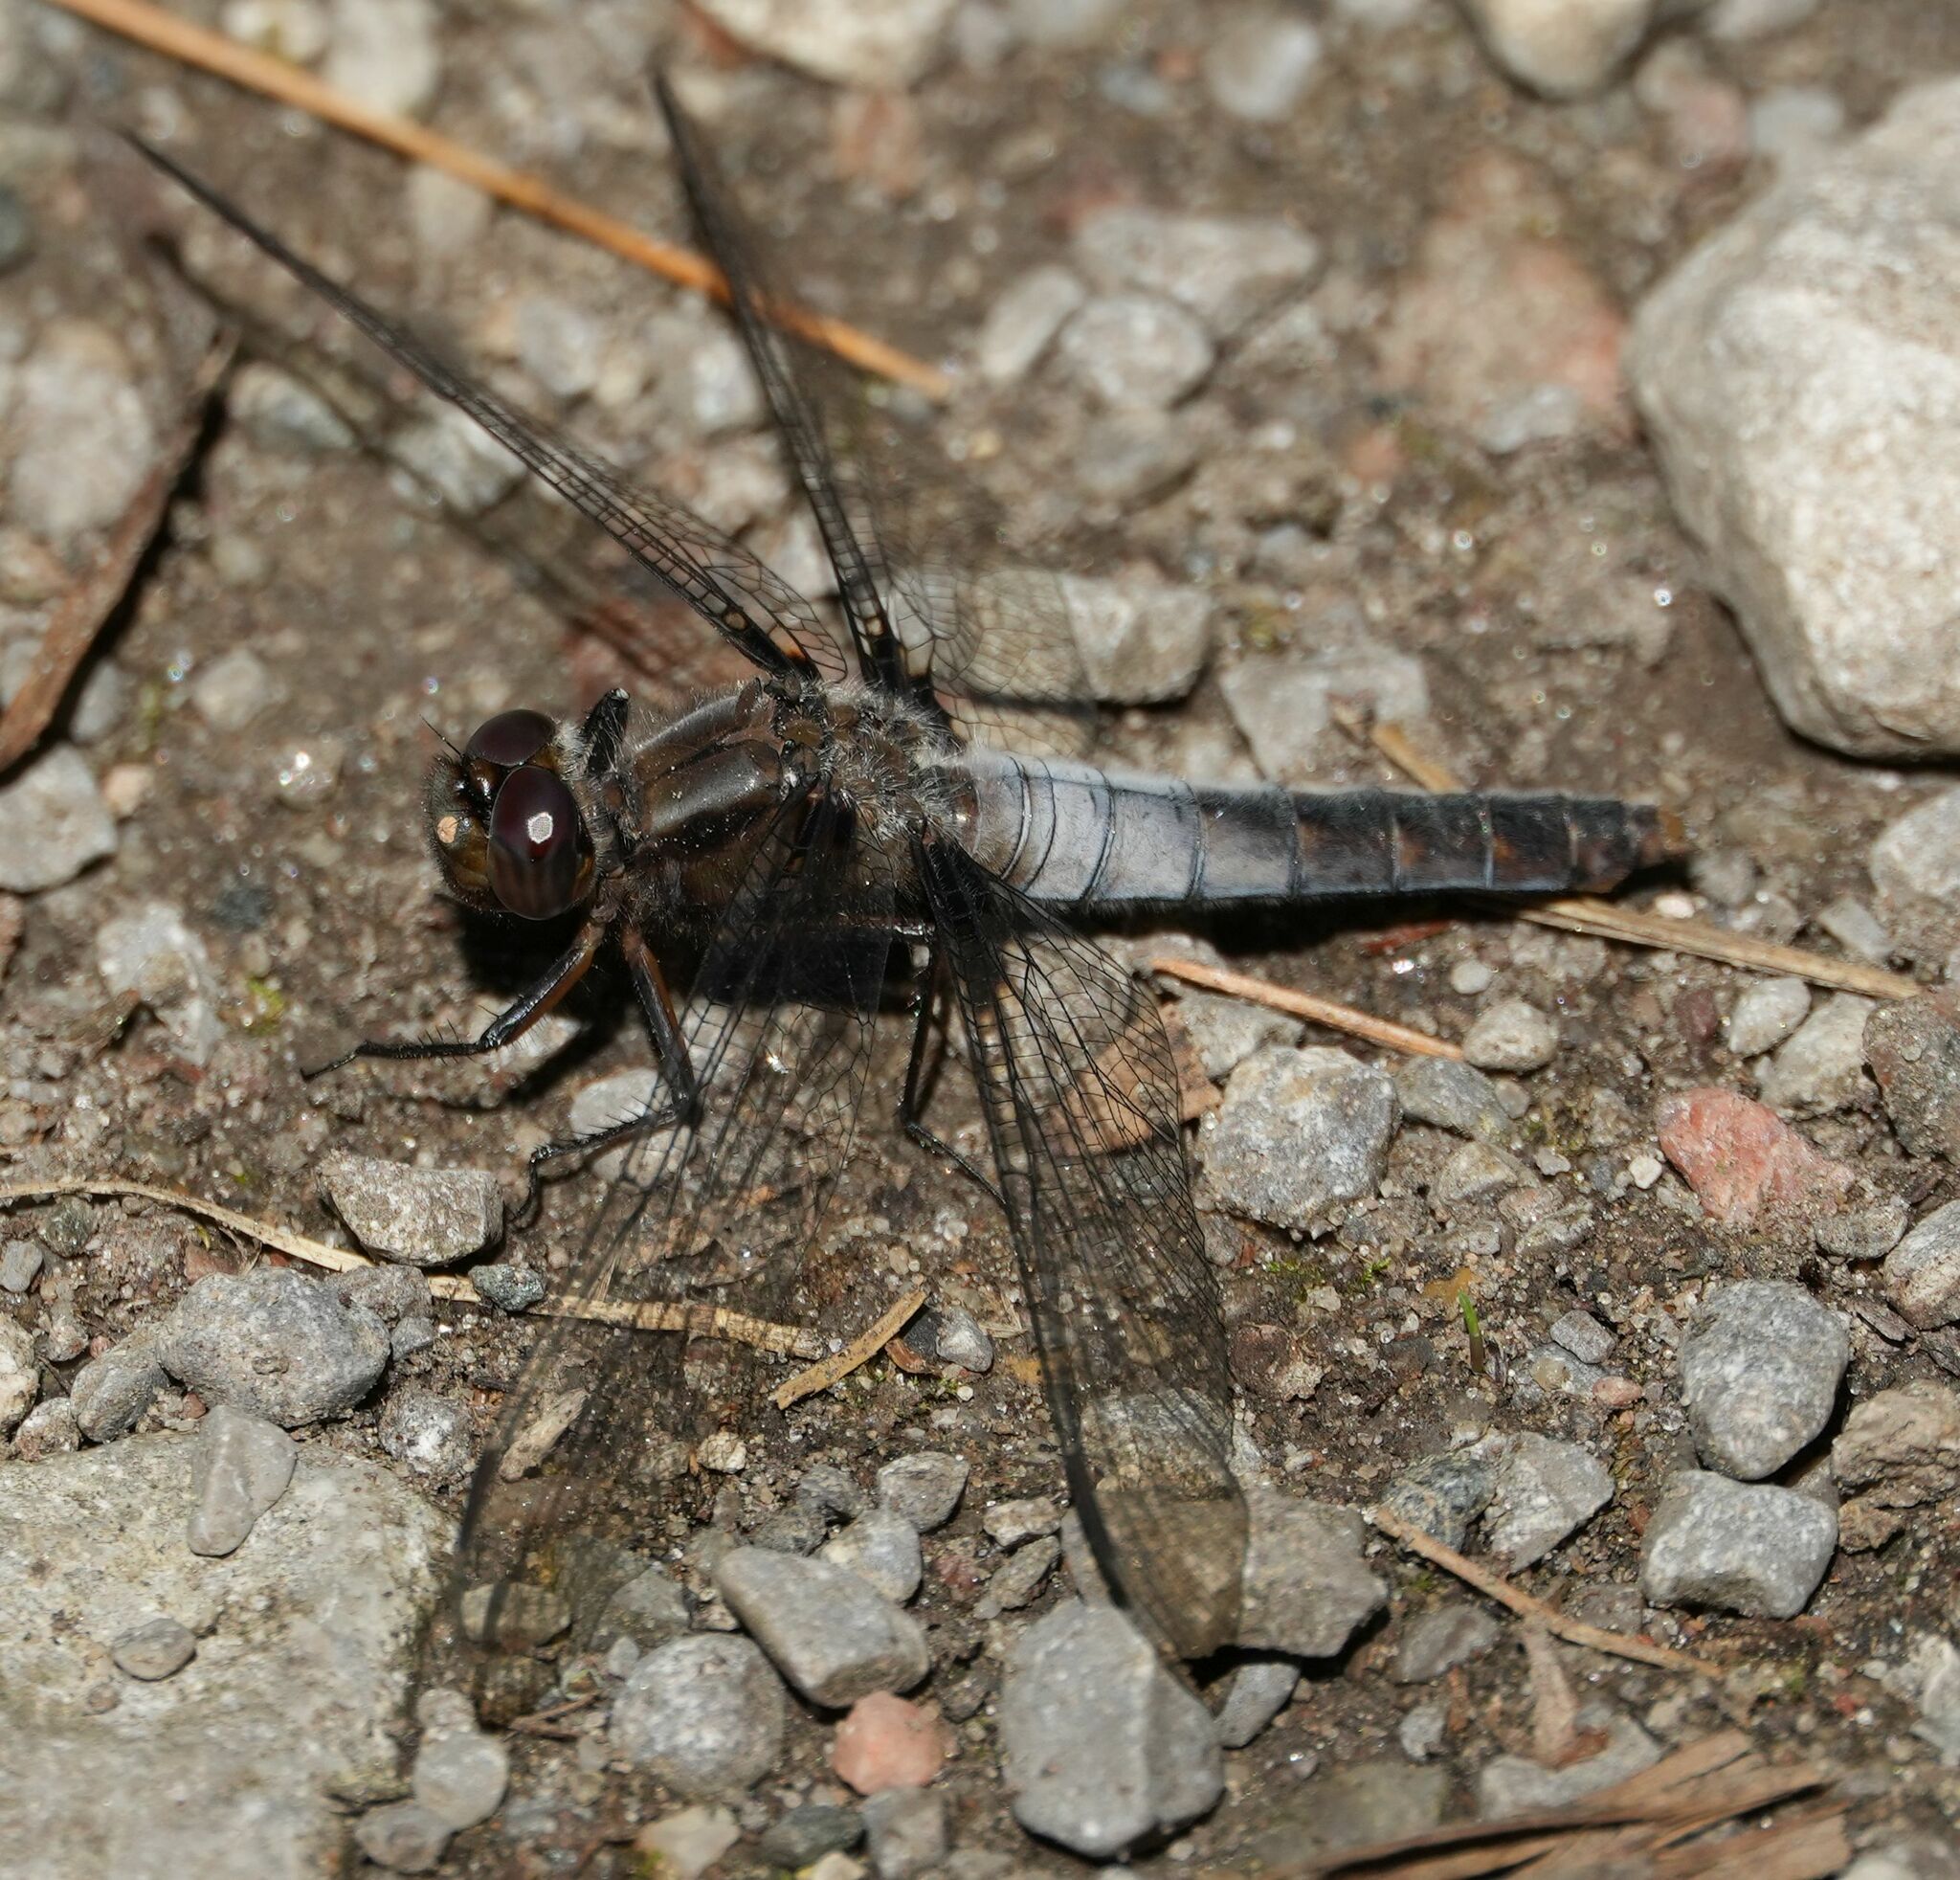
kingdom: Animalia
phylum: Arthropoda
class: Insecta
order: Odonata
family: Libellulidae
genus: Ladona
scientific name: Ladona julia
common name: Chalk-fronted corporal
